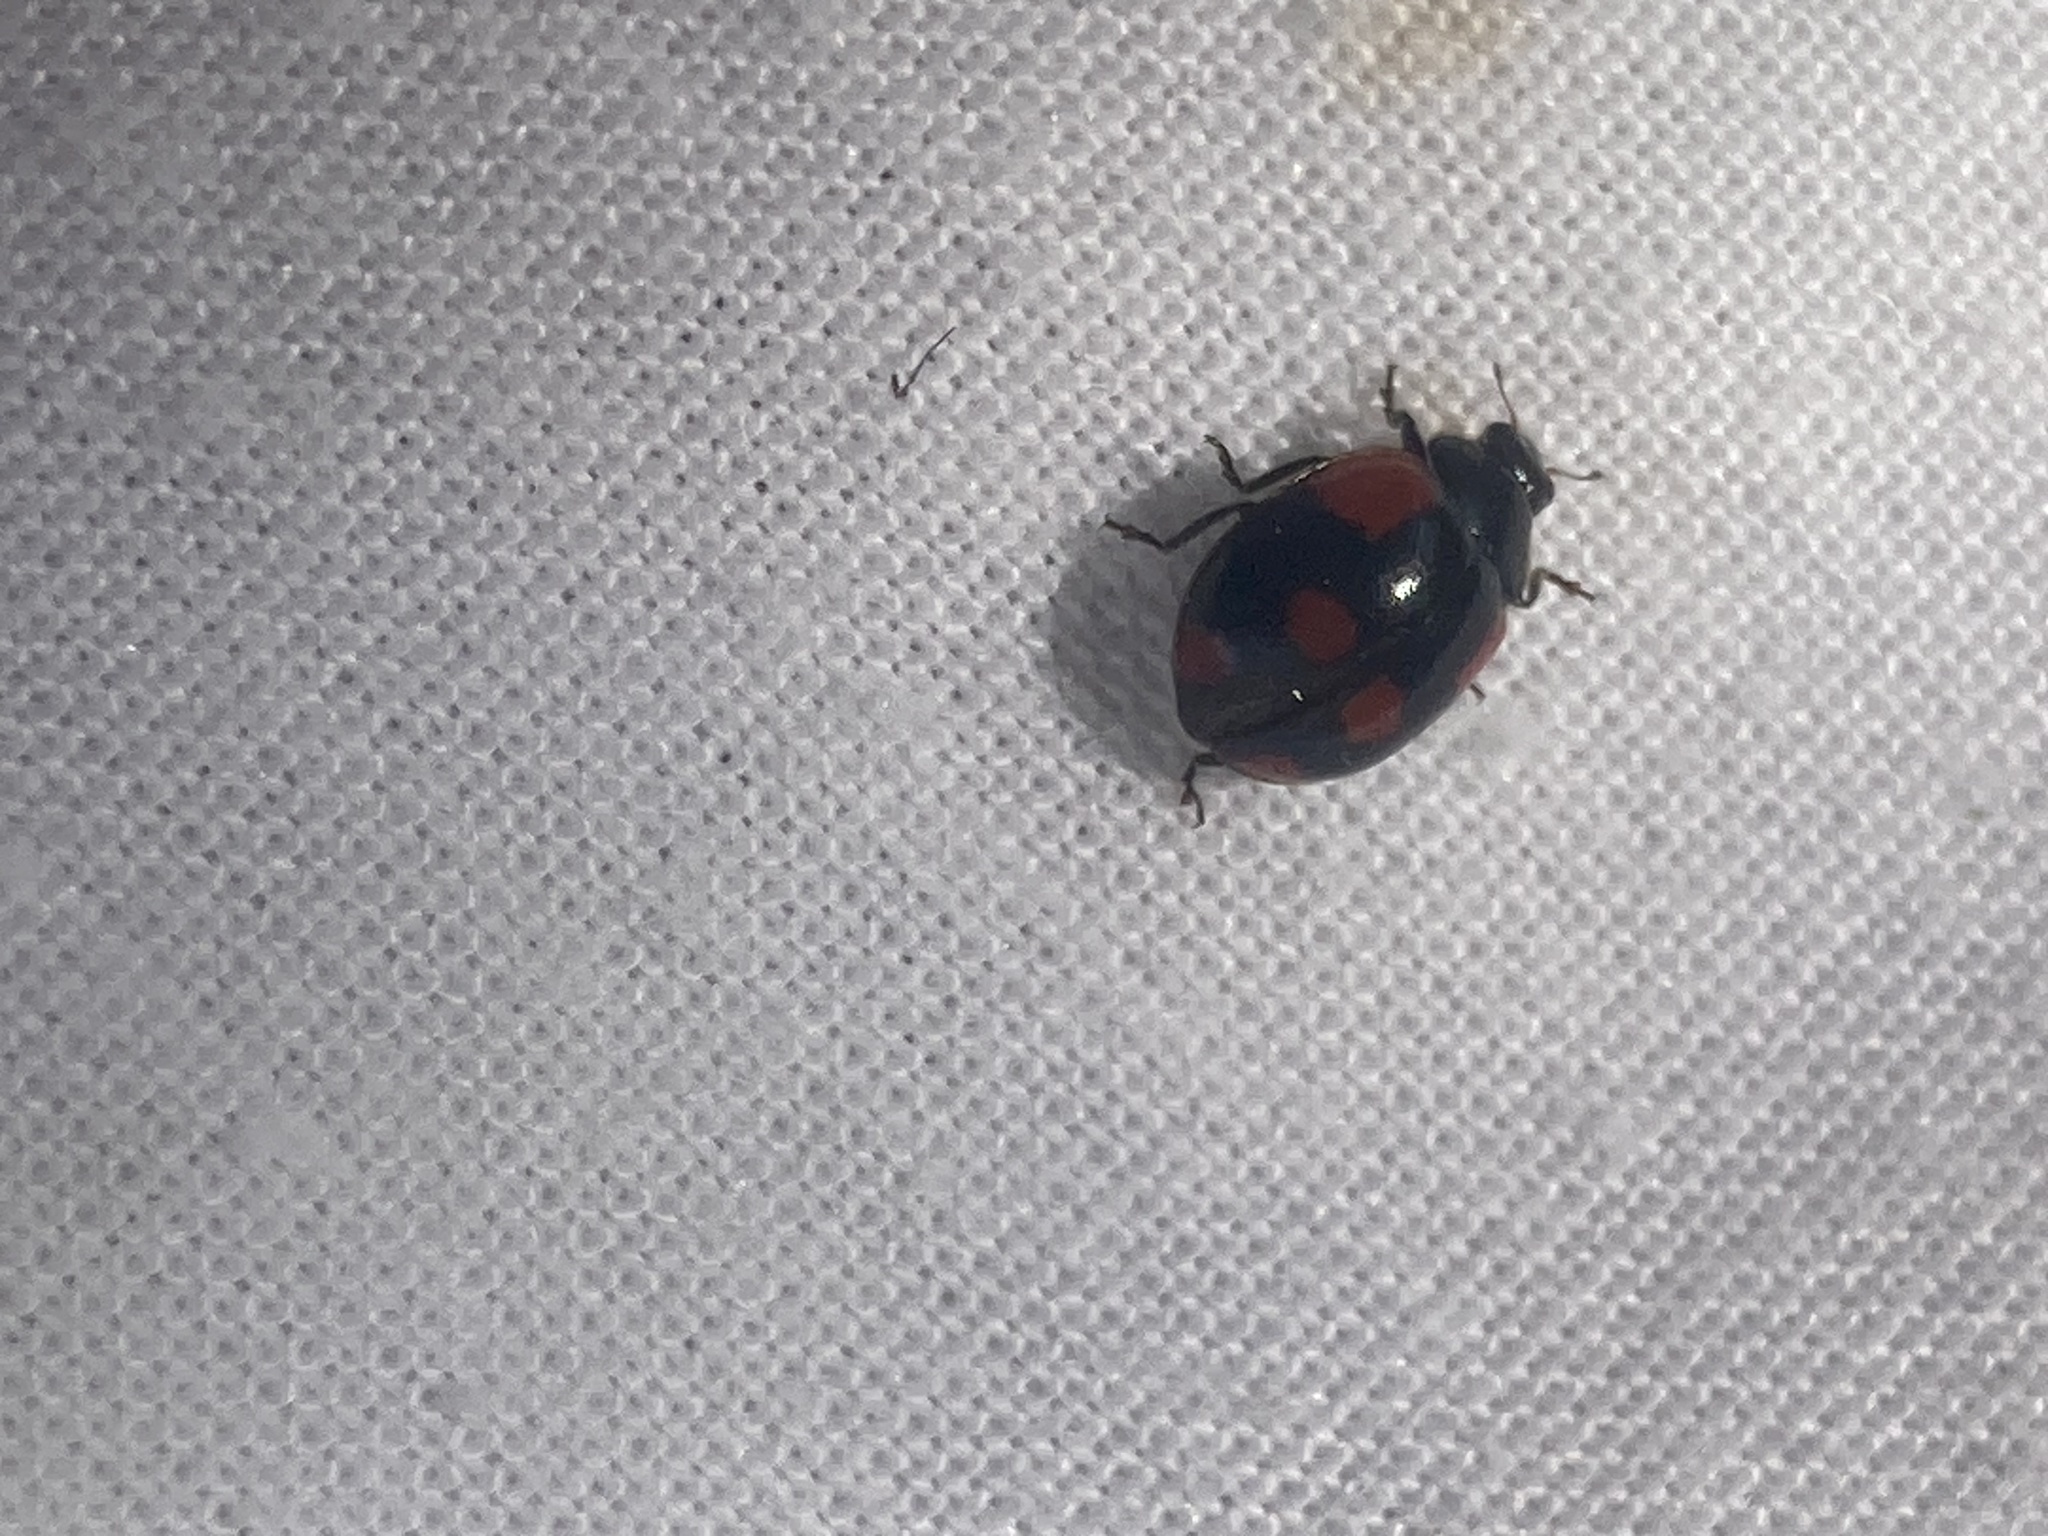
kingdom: Animalia
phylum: Arthropoda
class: Insecta
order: Coleoptera
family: Coccinellidae
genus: Adalia
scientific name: Adalia bipunctata
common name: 2-spot ladybird
